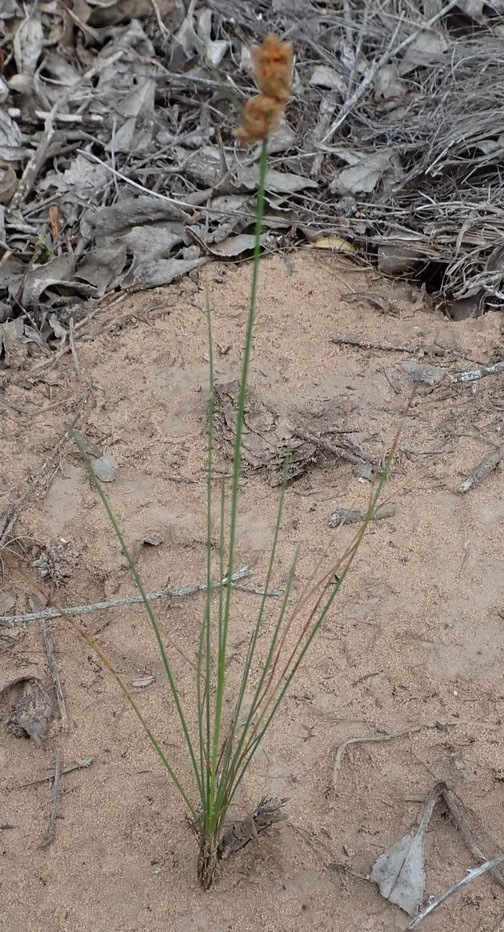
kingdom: Plantae
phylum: Tracheophyta
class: Liliopsida
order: Poales
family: Cyperaceae
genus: Ficinia
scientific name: Ficinia bulbosa
